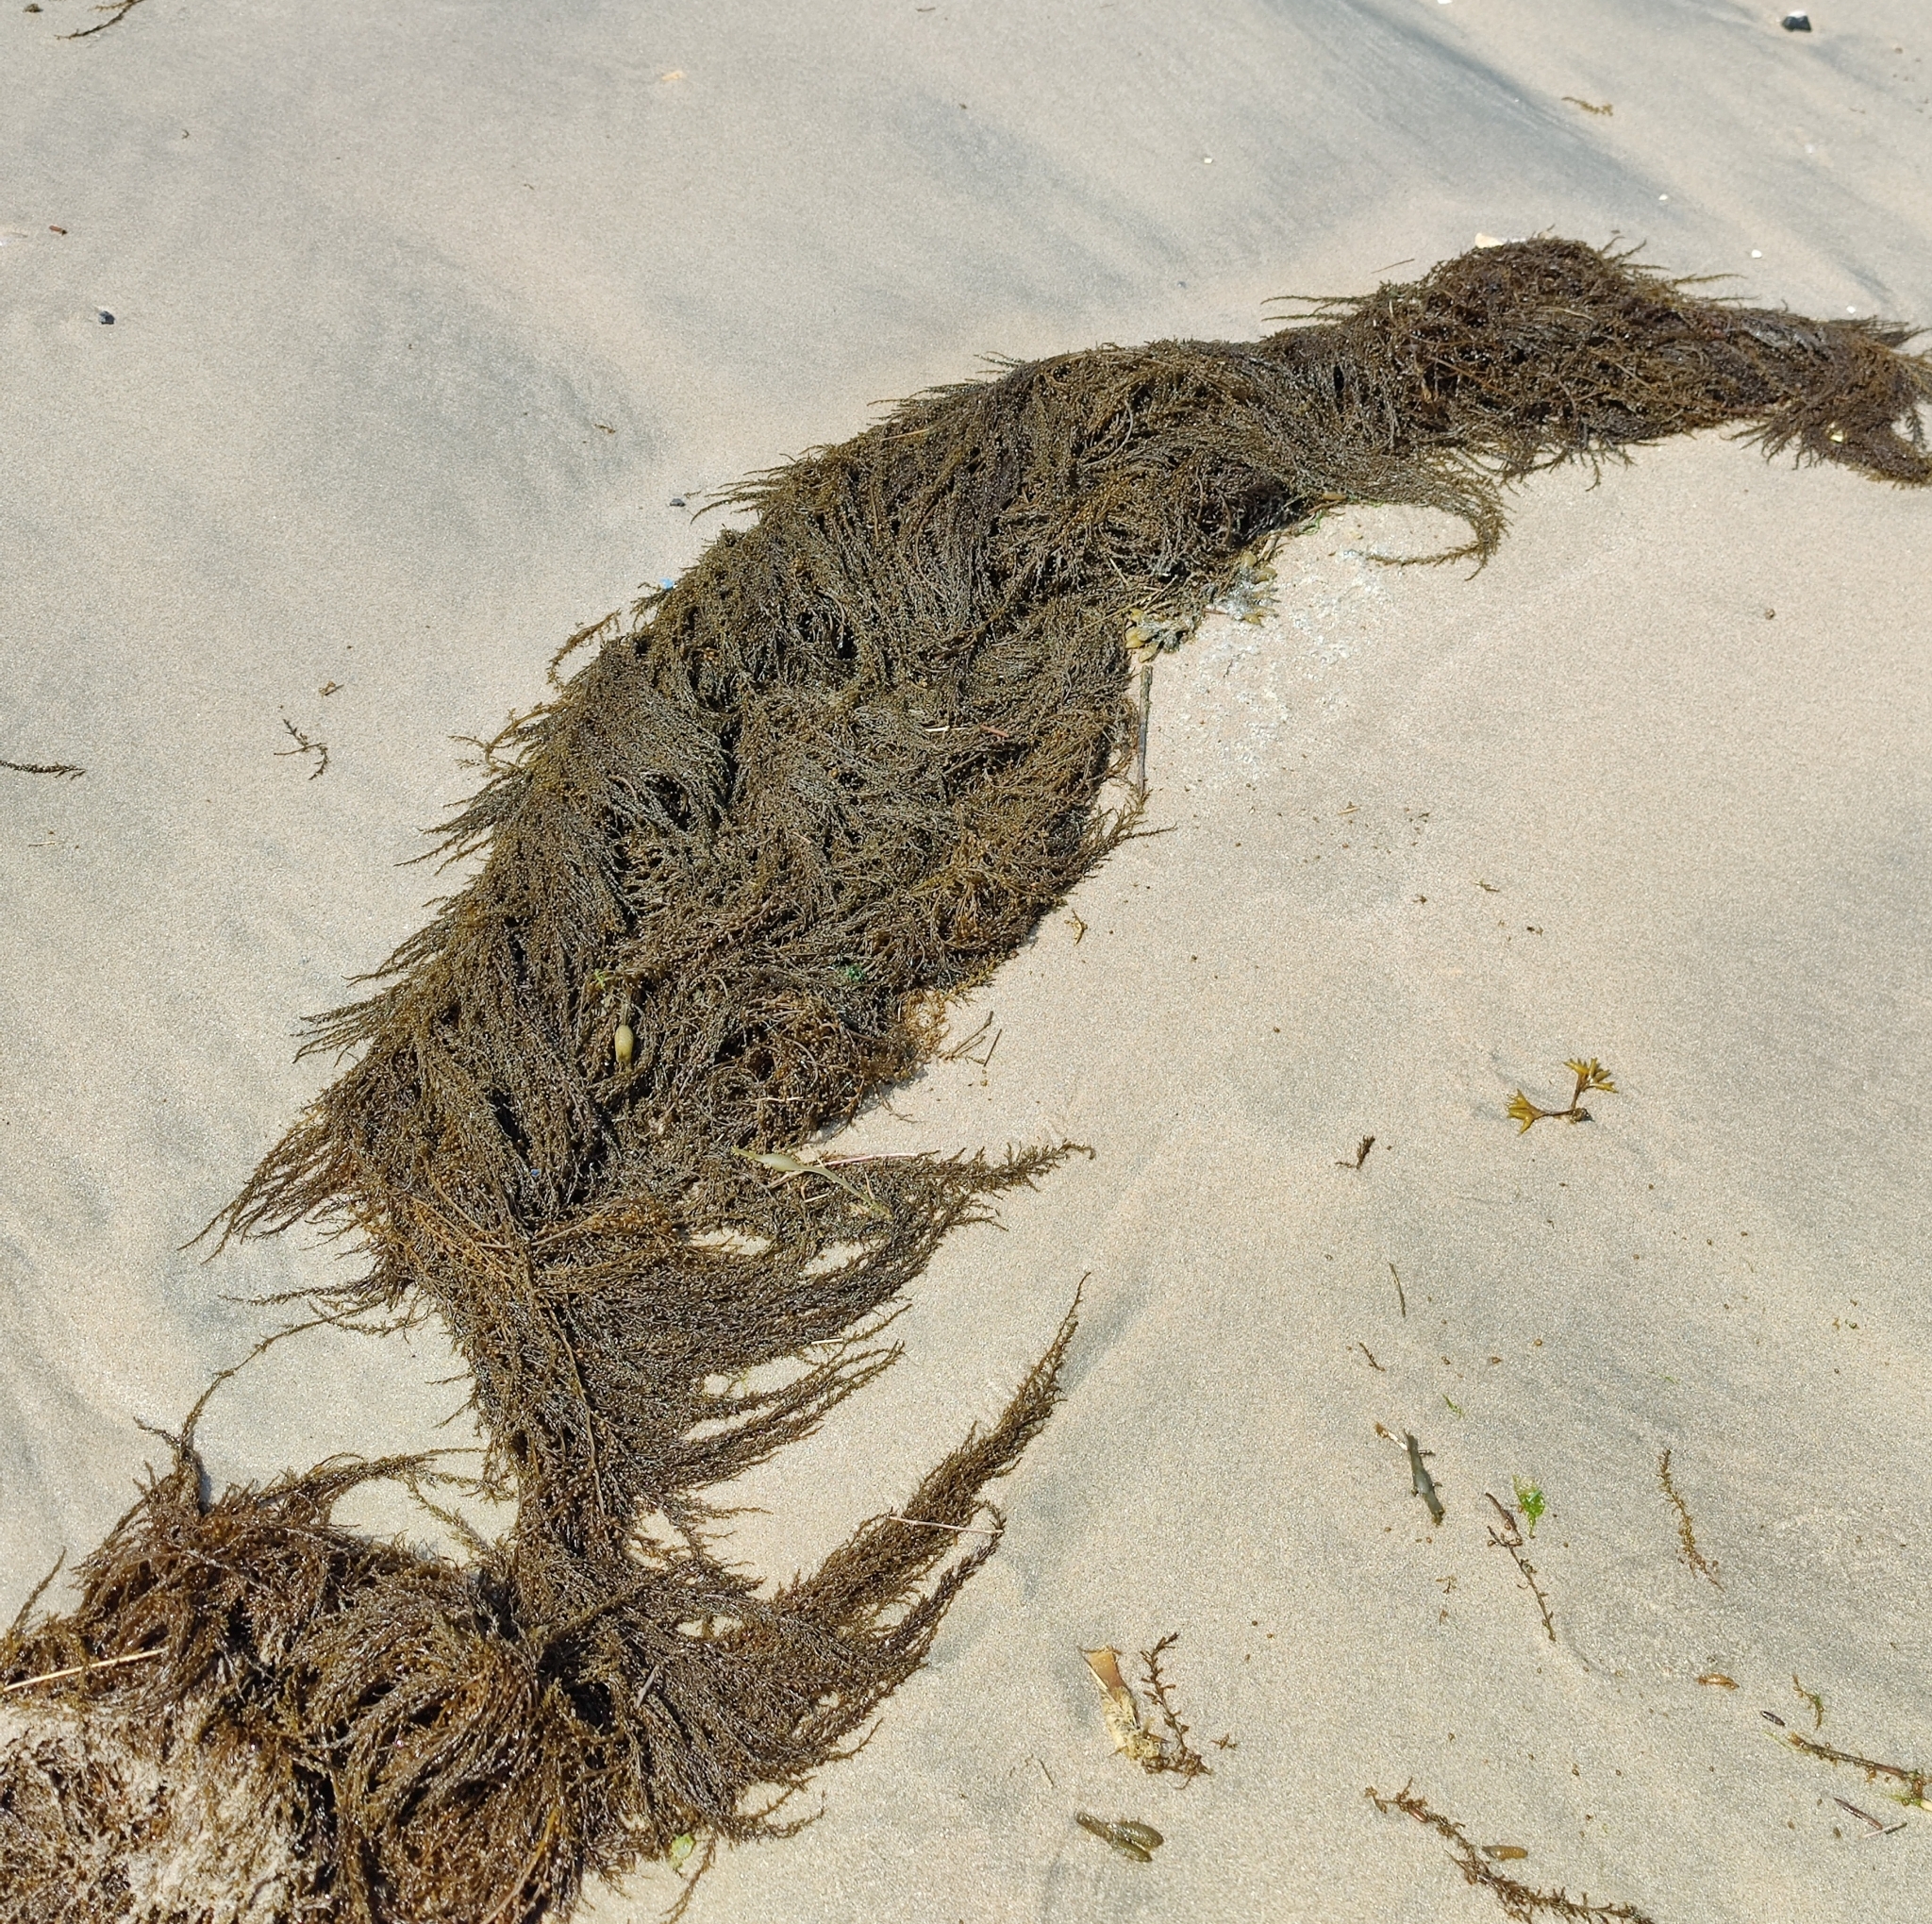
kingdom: Chromista
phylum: Ochrophyta
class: Phaeophyceae
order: Fucales
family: Sargassaceae
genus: Sargassum
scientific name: Sargassum muticum
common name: Japweed
